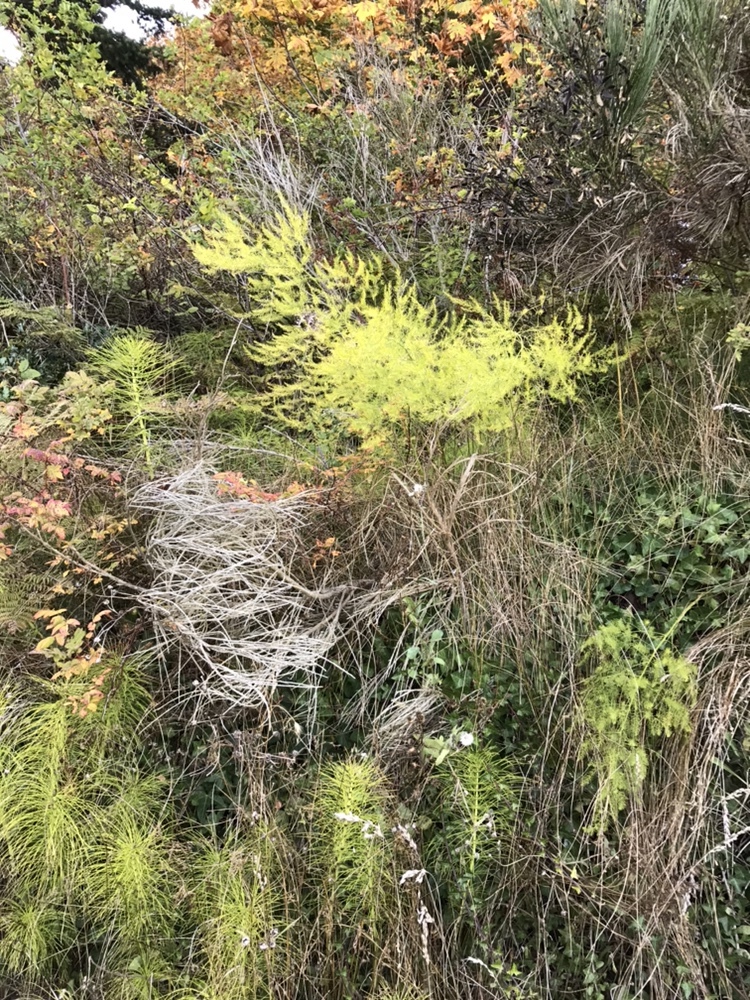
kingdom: Plantae
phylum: Tracheophyta
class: Liliopsida
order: Asparagales
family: Asparagaceae
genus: Asparagus
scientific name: Asparagus officinalis
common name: Garden asparagus
